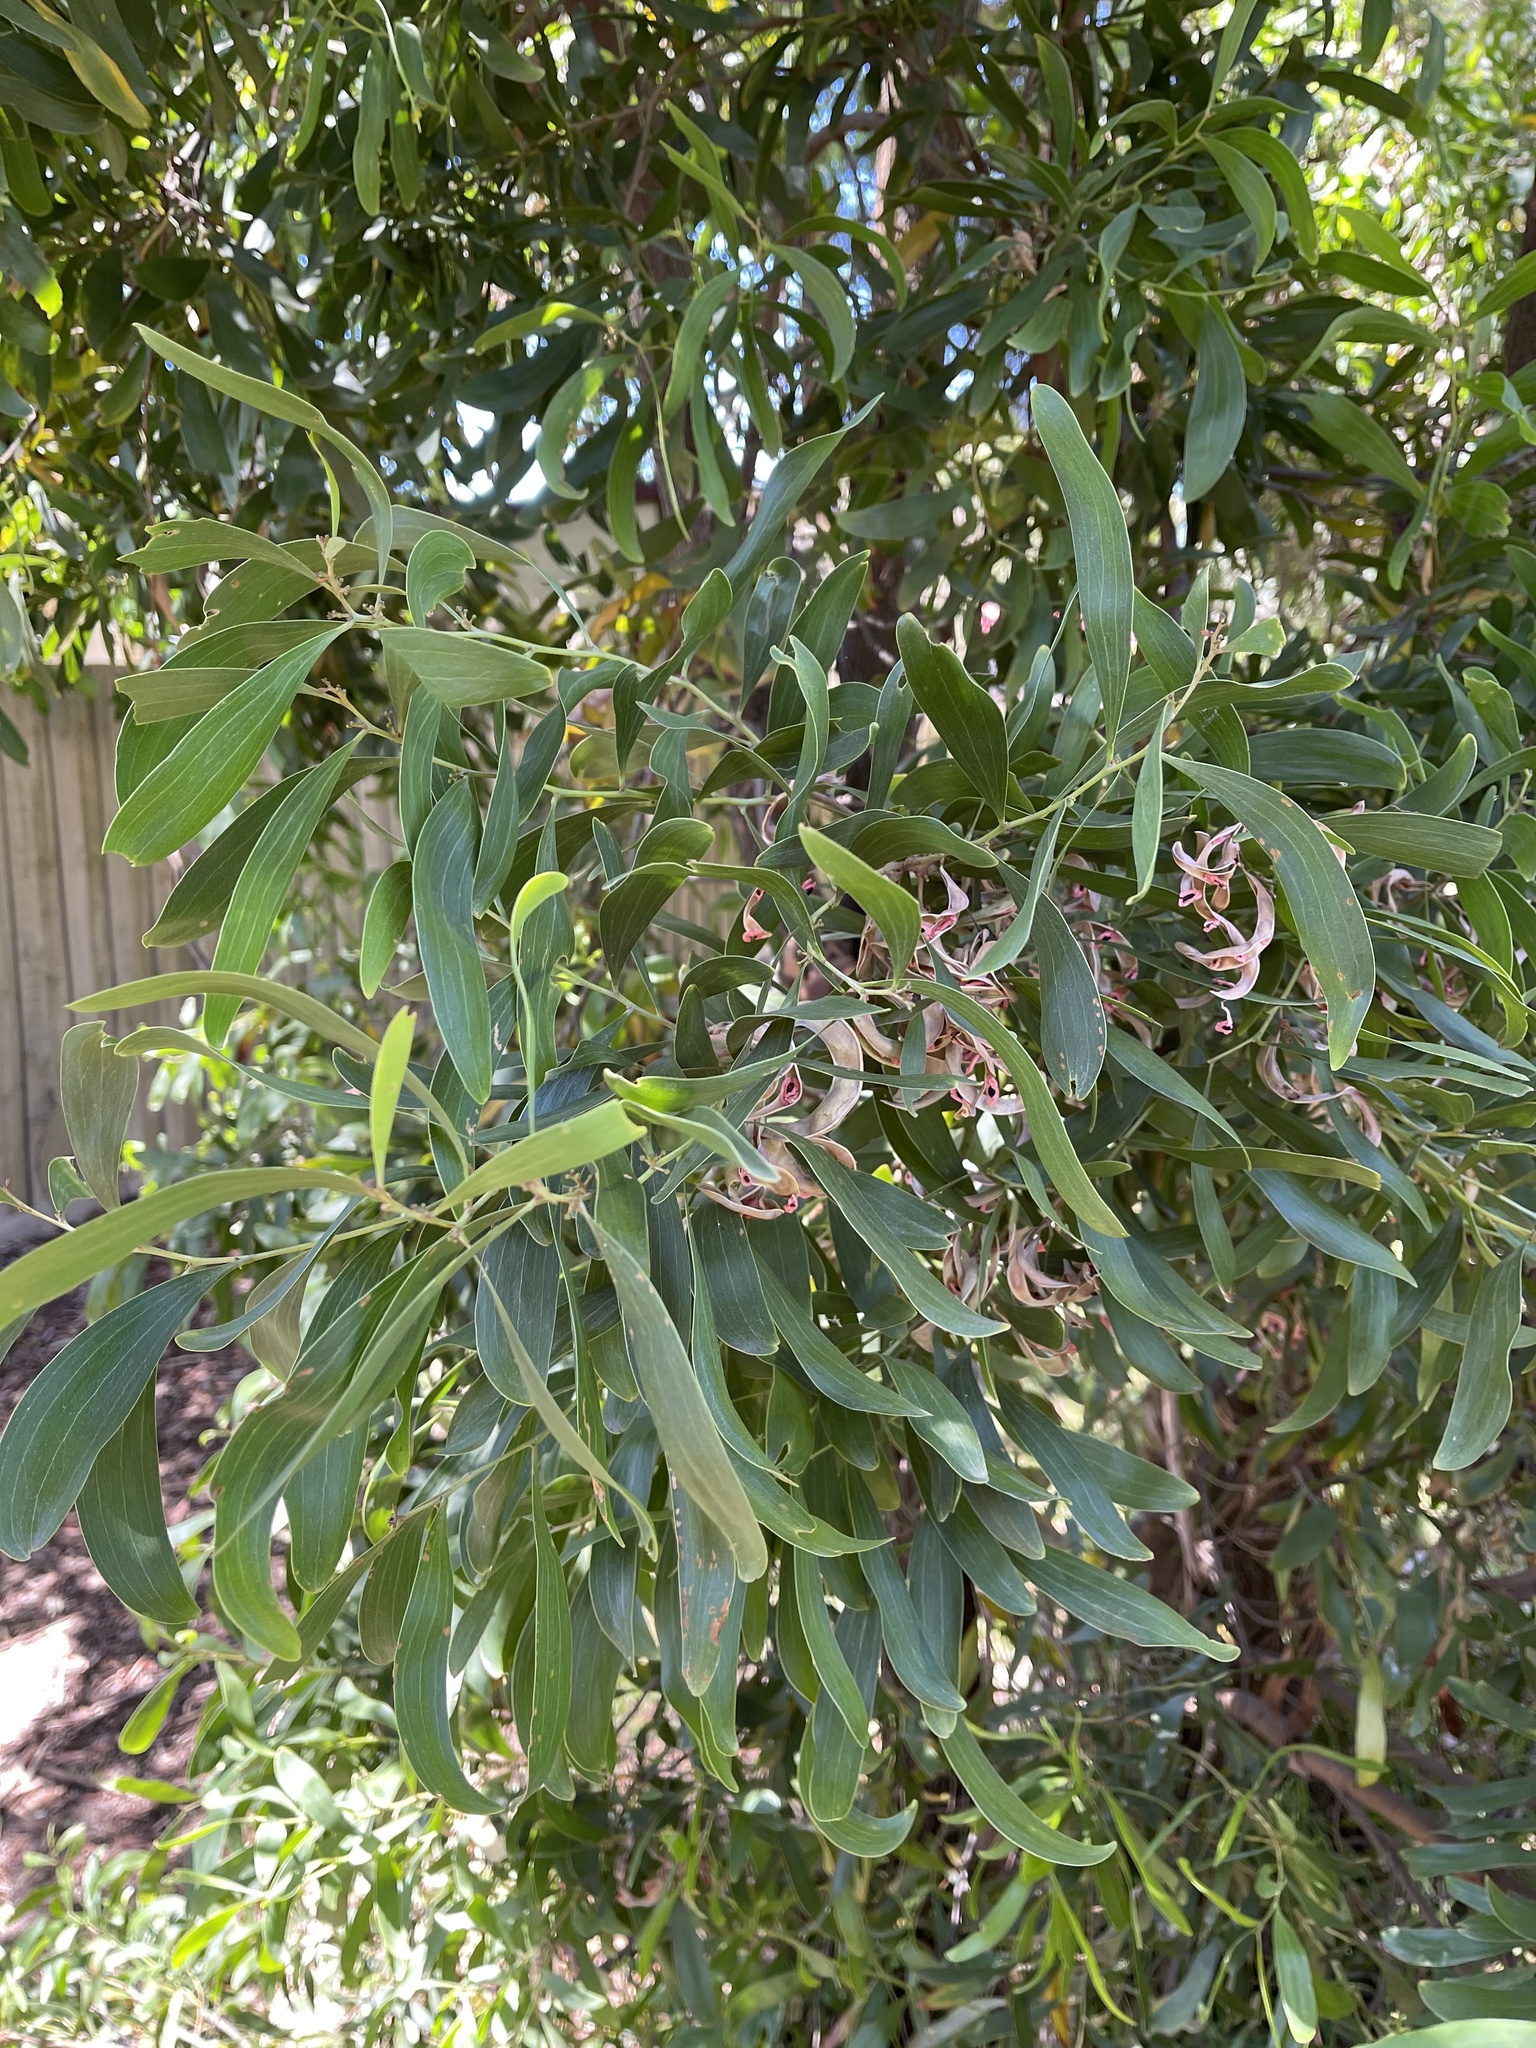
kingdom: Plantae
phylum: Tracheophyta
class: Magnoliopsida
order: Fabales
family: Fabaceae
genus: Acacia
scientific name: Acacia melanoxylon
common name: Blackwood
